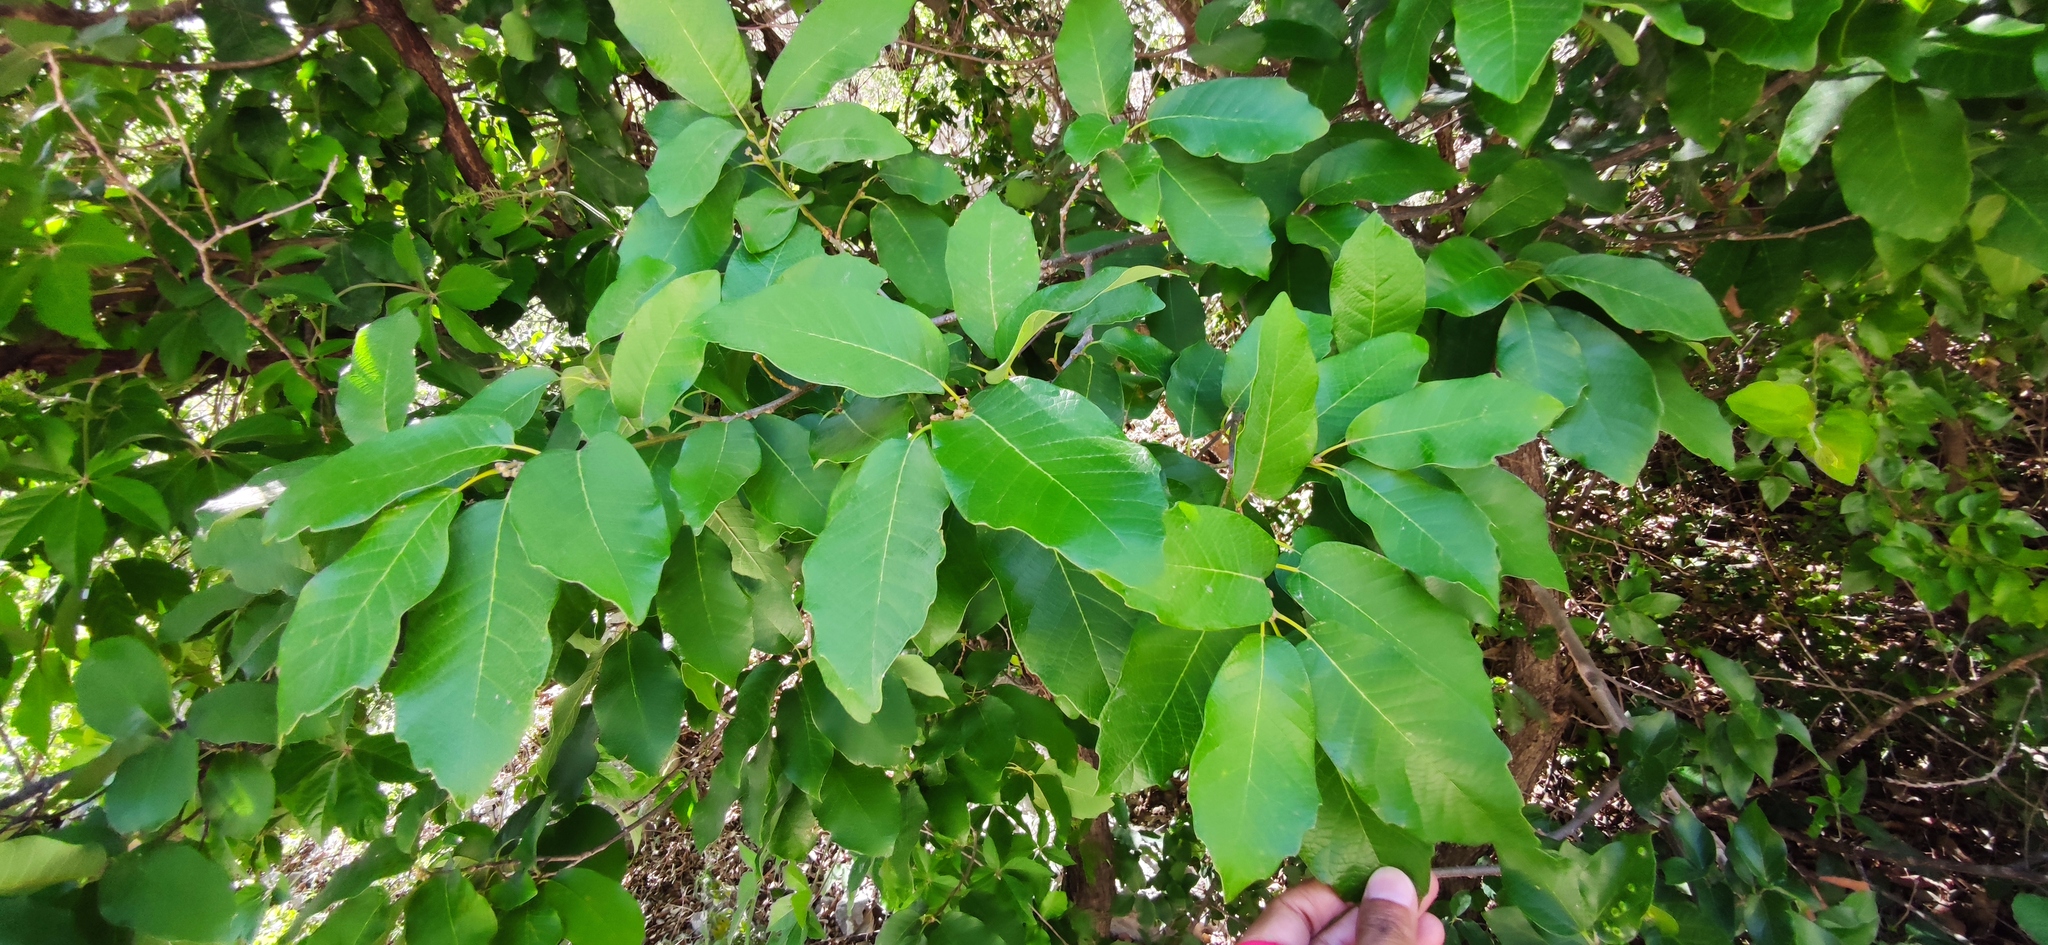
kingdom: Plantae
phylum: Tracheophyta
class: Magnoliopsida
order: Fagales
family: Fagaceae
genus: Quercus
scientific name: Quercus polymorpha
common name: Mexican white oak
